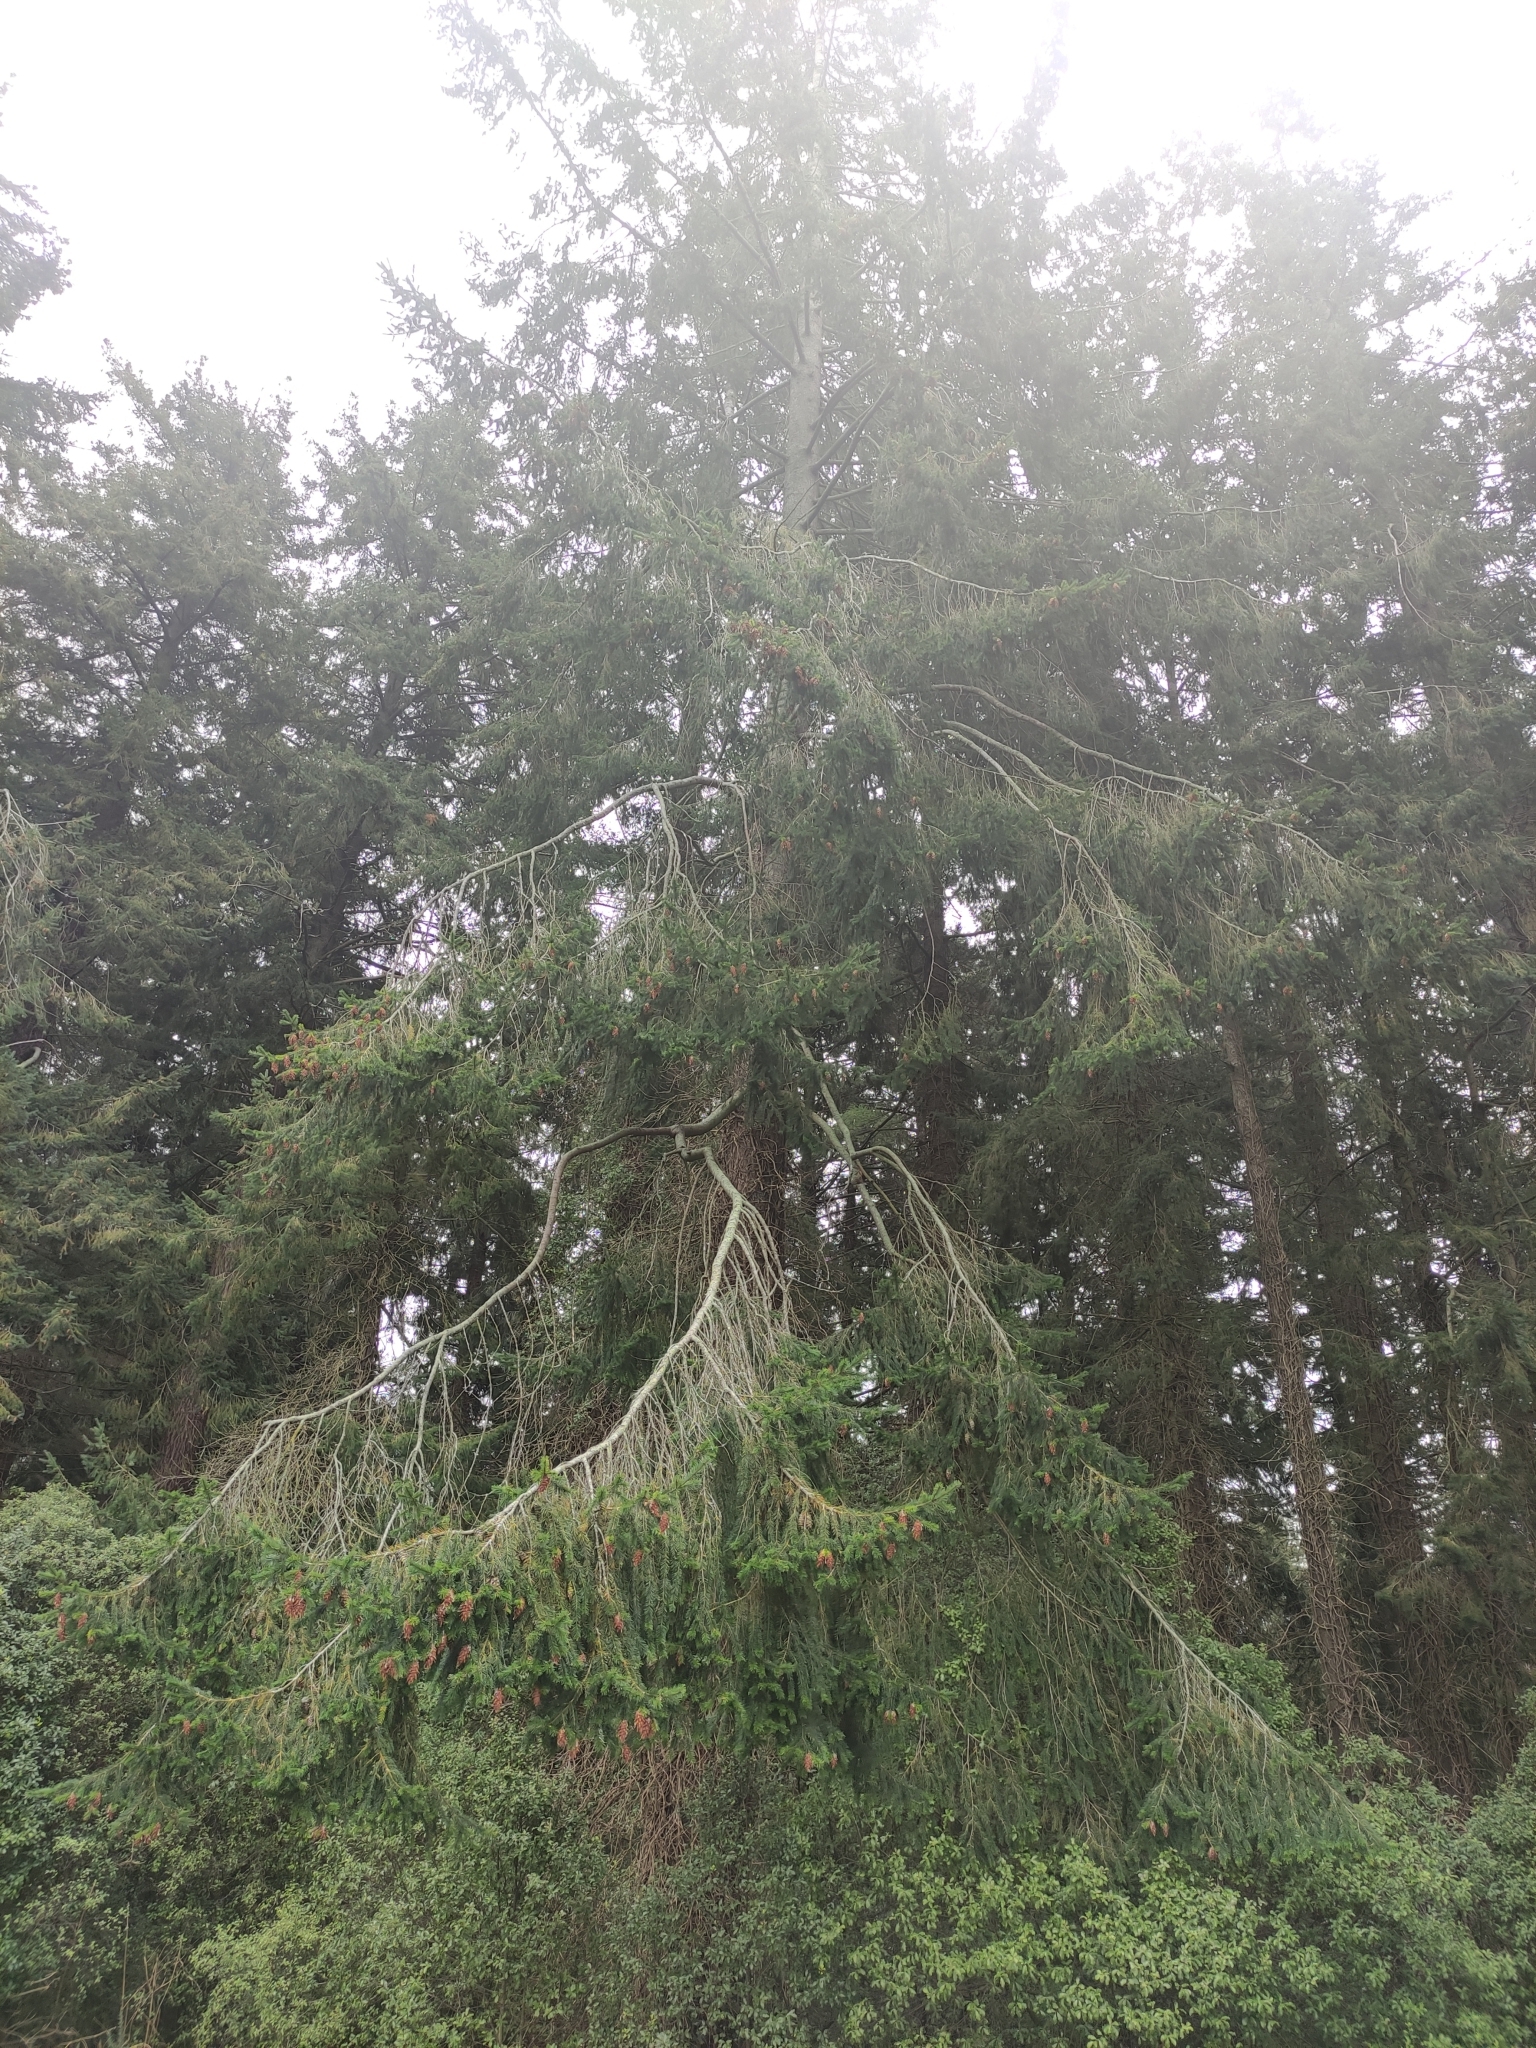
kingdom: Plantae
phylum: Tracheophyta
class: Pinopsida
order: Pinales
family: Pinaceae
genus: Pseudotsuga
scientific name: Pseudotsuga menziesii
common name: Douglas fir
